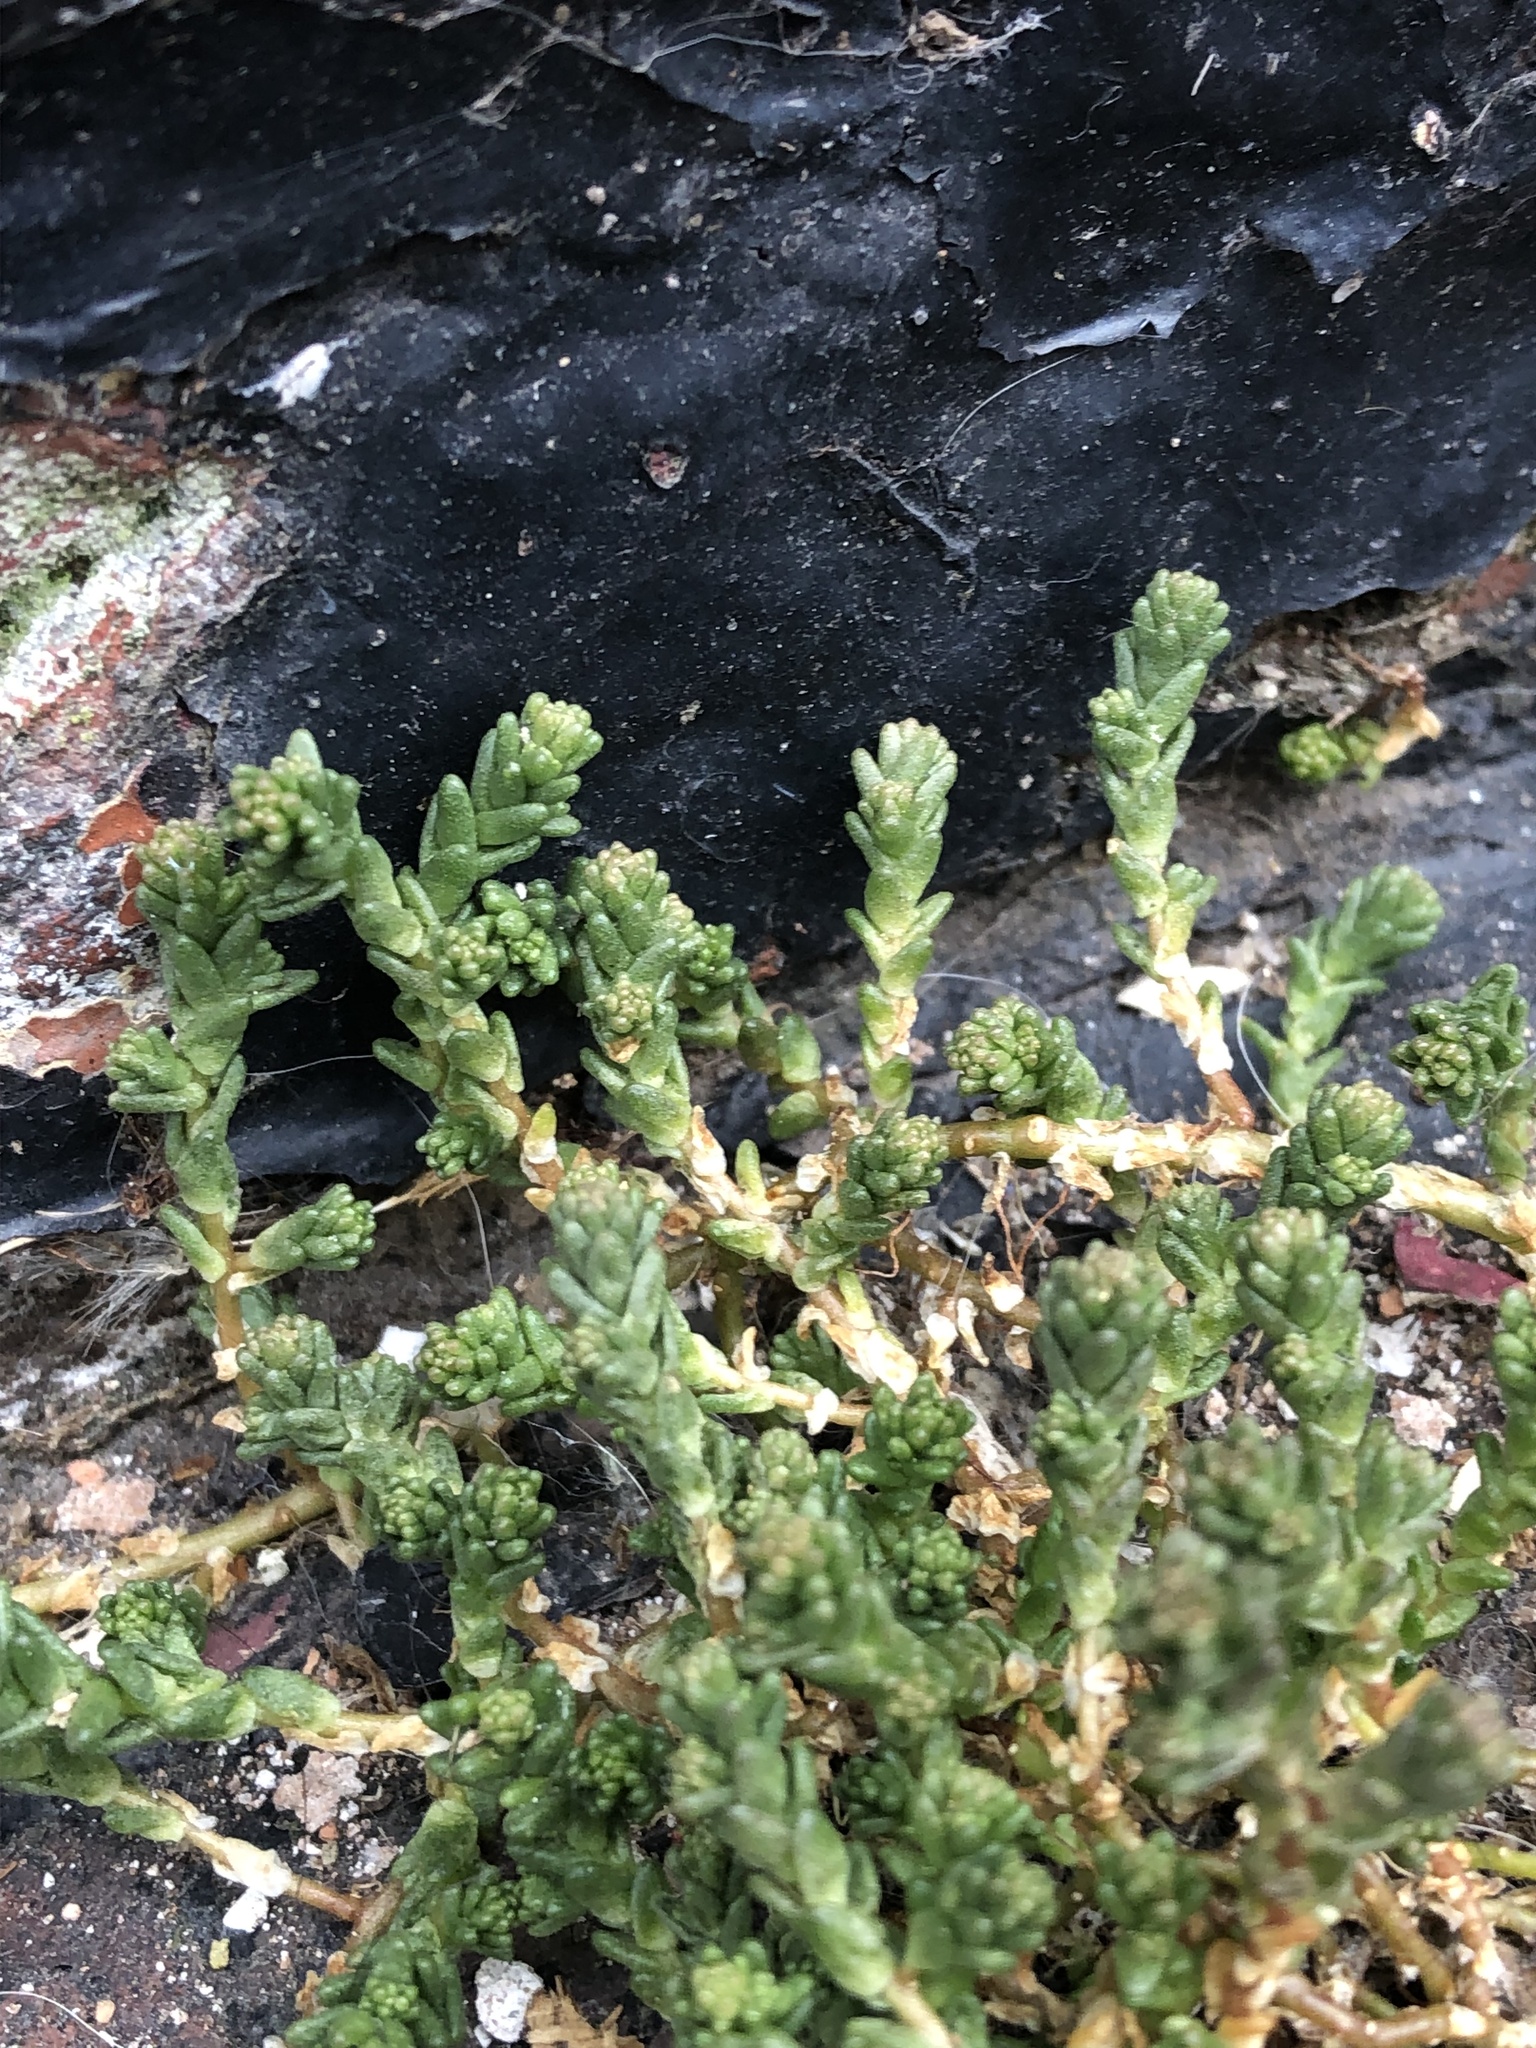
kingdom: Plantae
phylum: Tracheophyta
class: Magnoliopsida
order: Saxifragales
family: Crassulaceae
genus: Sedum
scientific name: Sedum acre
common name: Biting stonecrop
